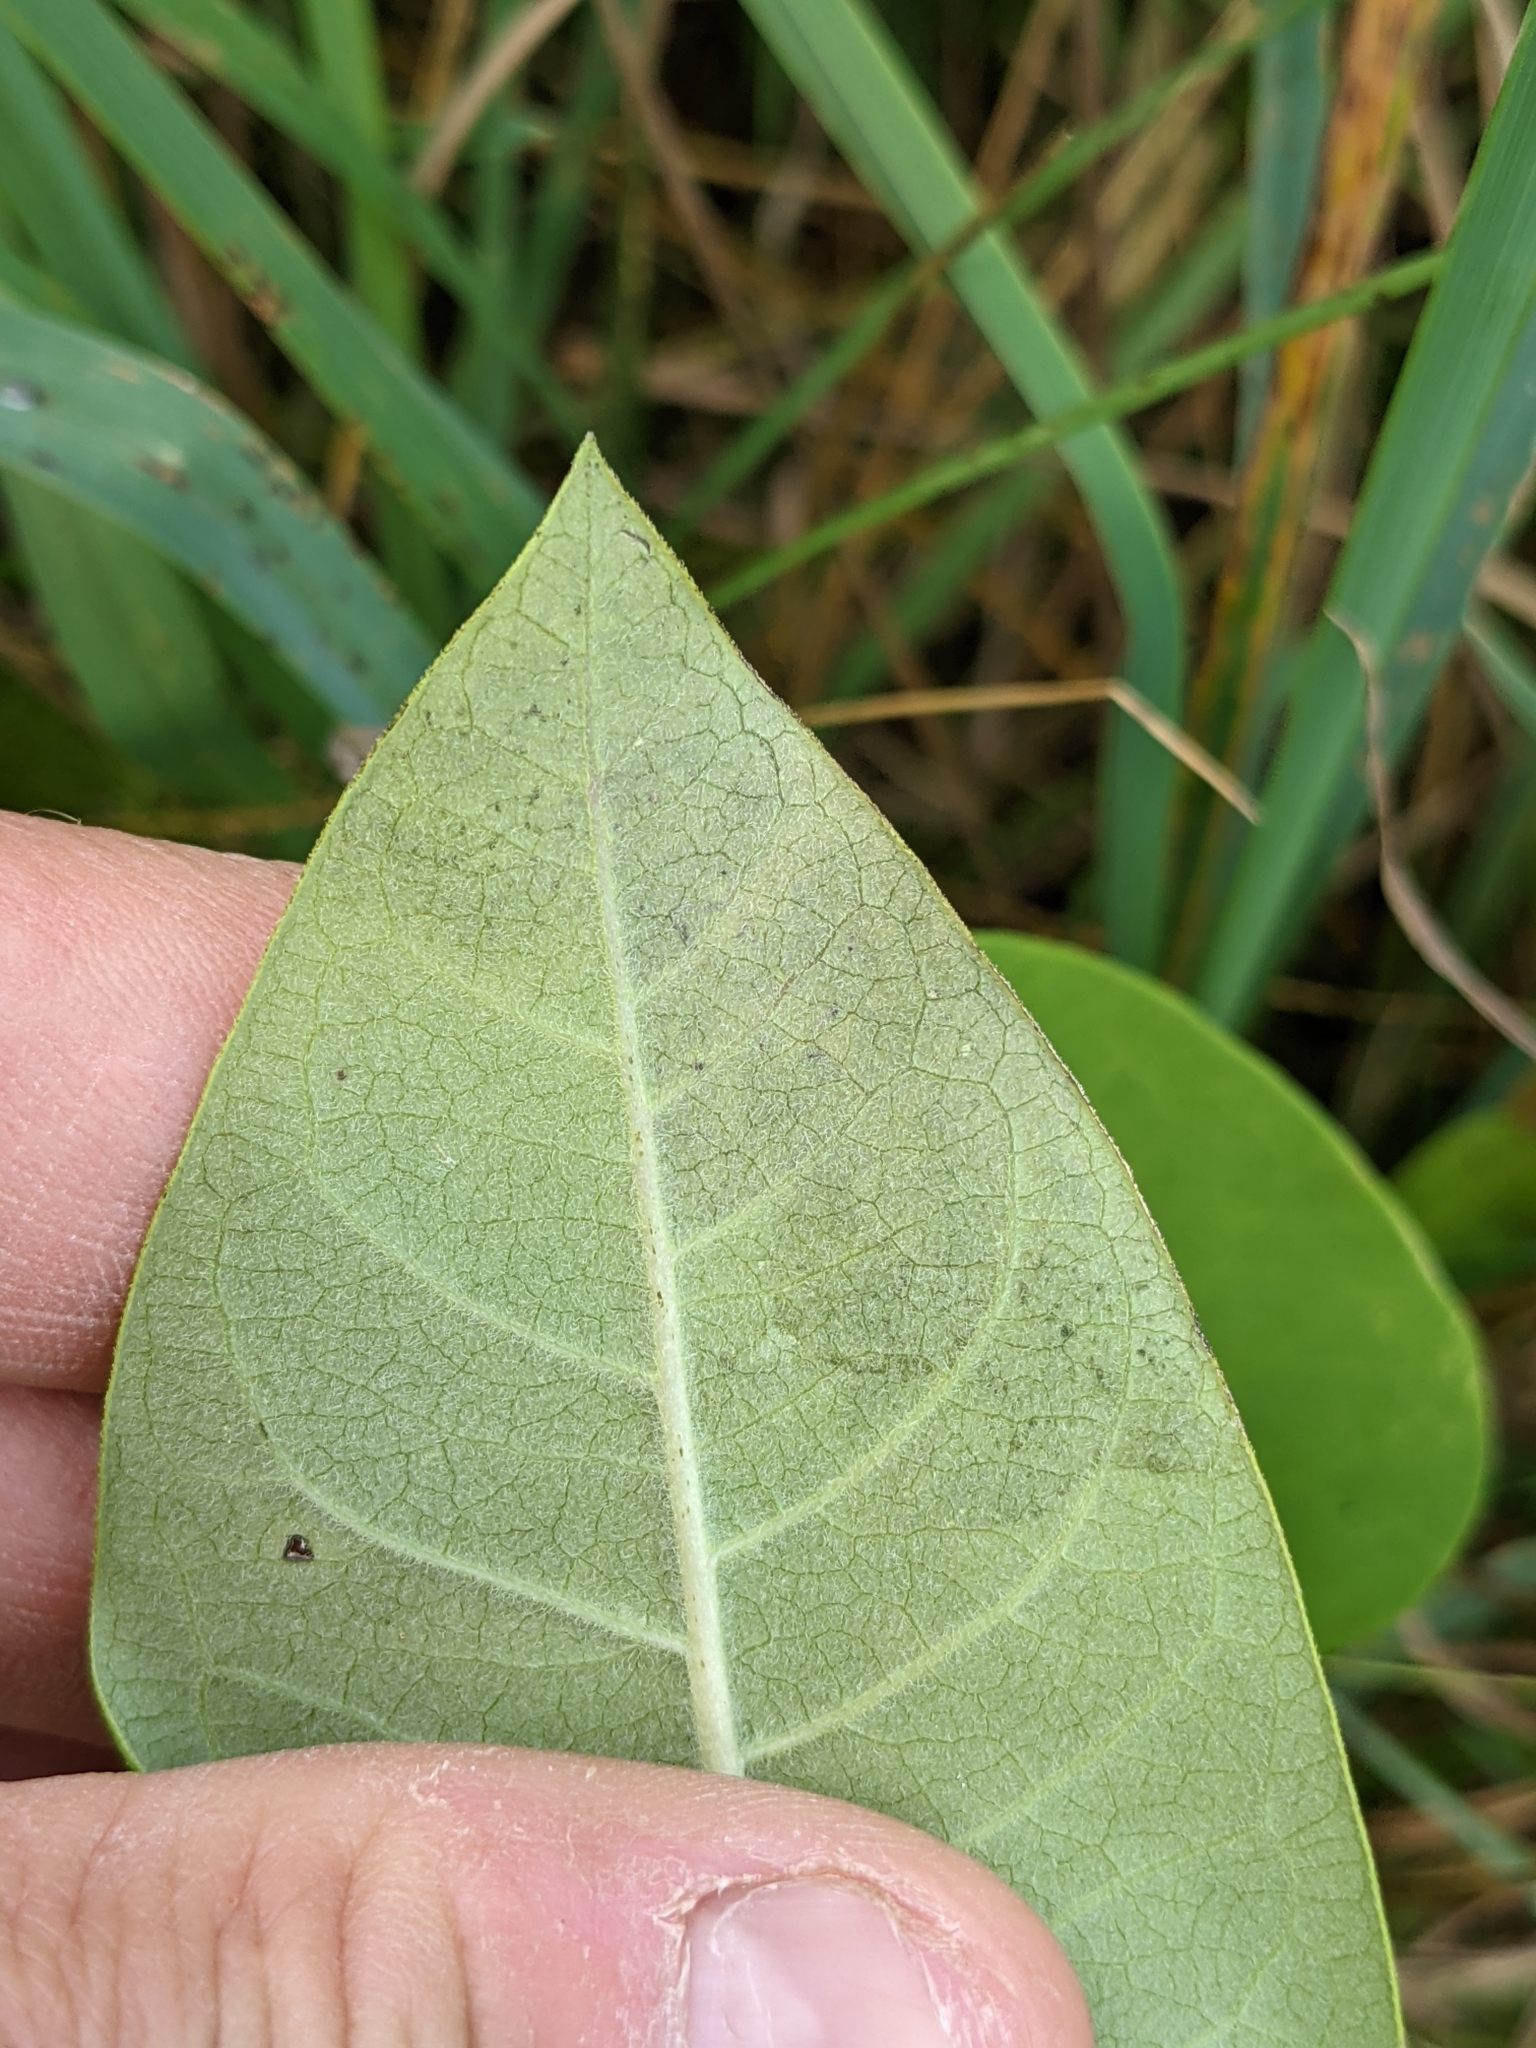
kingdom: Animalia
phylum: Arthropoda
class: Insecta
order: Diptera
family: Agromyzidae
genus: Liriomyza
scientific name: Liriomyza asclepiadis
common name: Milkweed leaf-miner fly
